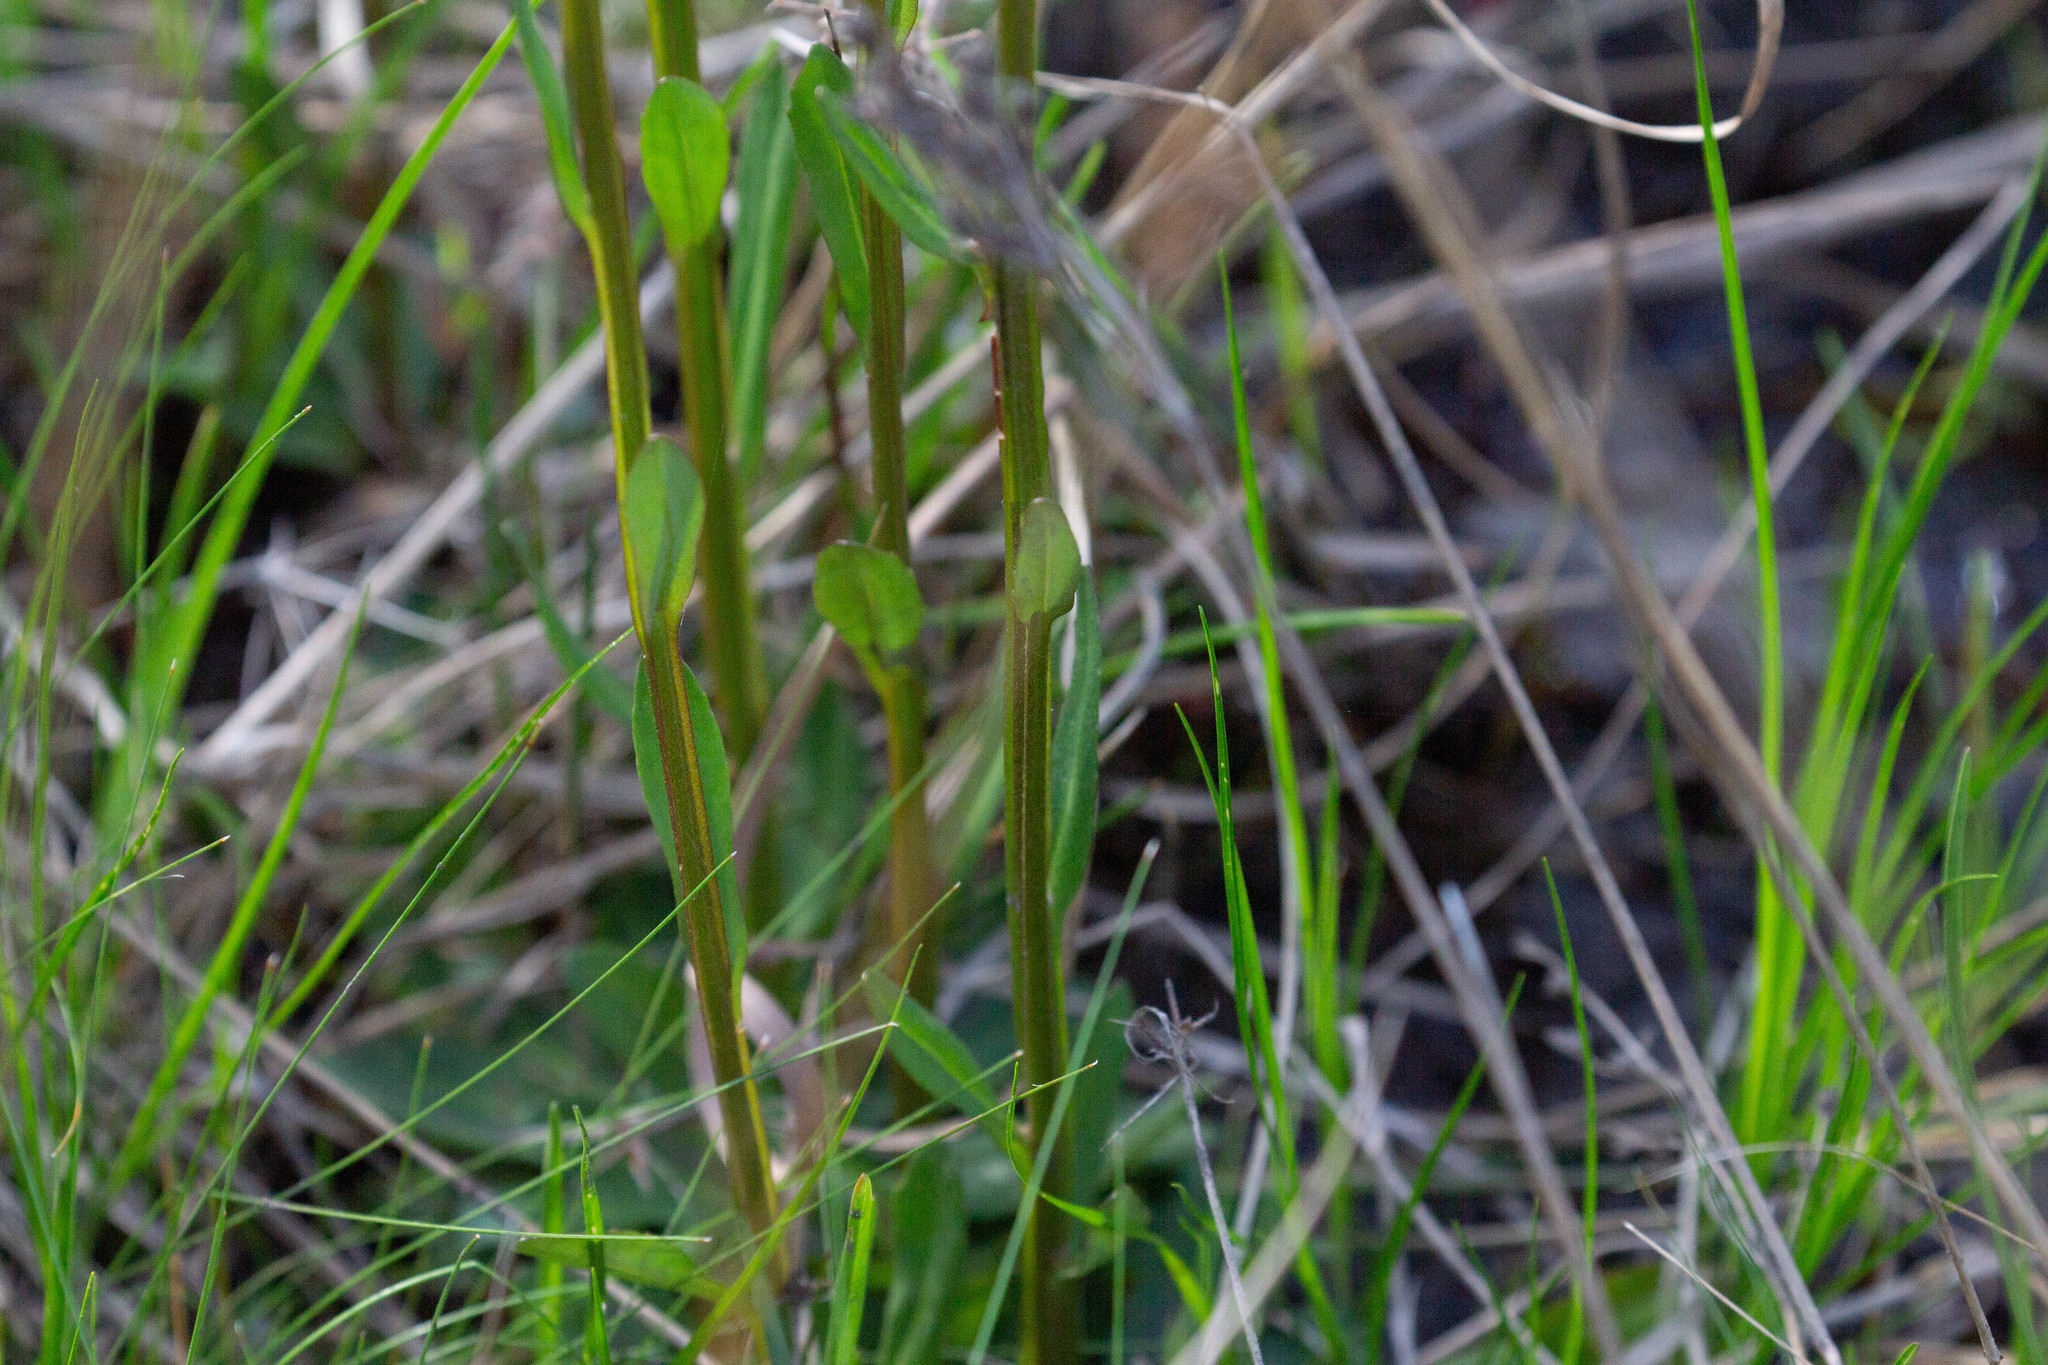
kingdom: Plantae
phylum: Tracheophyta
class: Magnoliopsida
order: Asterales
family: Asteraceae
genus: Helenium
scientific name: Helenium brevifolium
